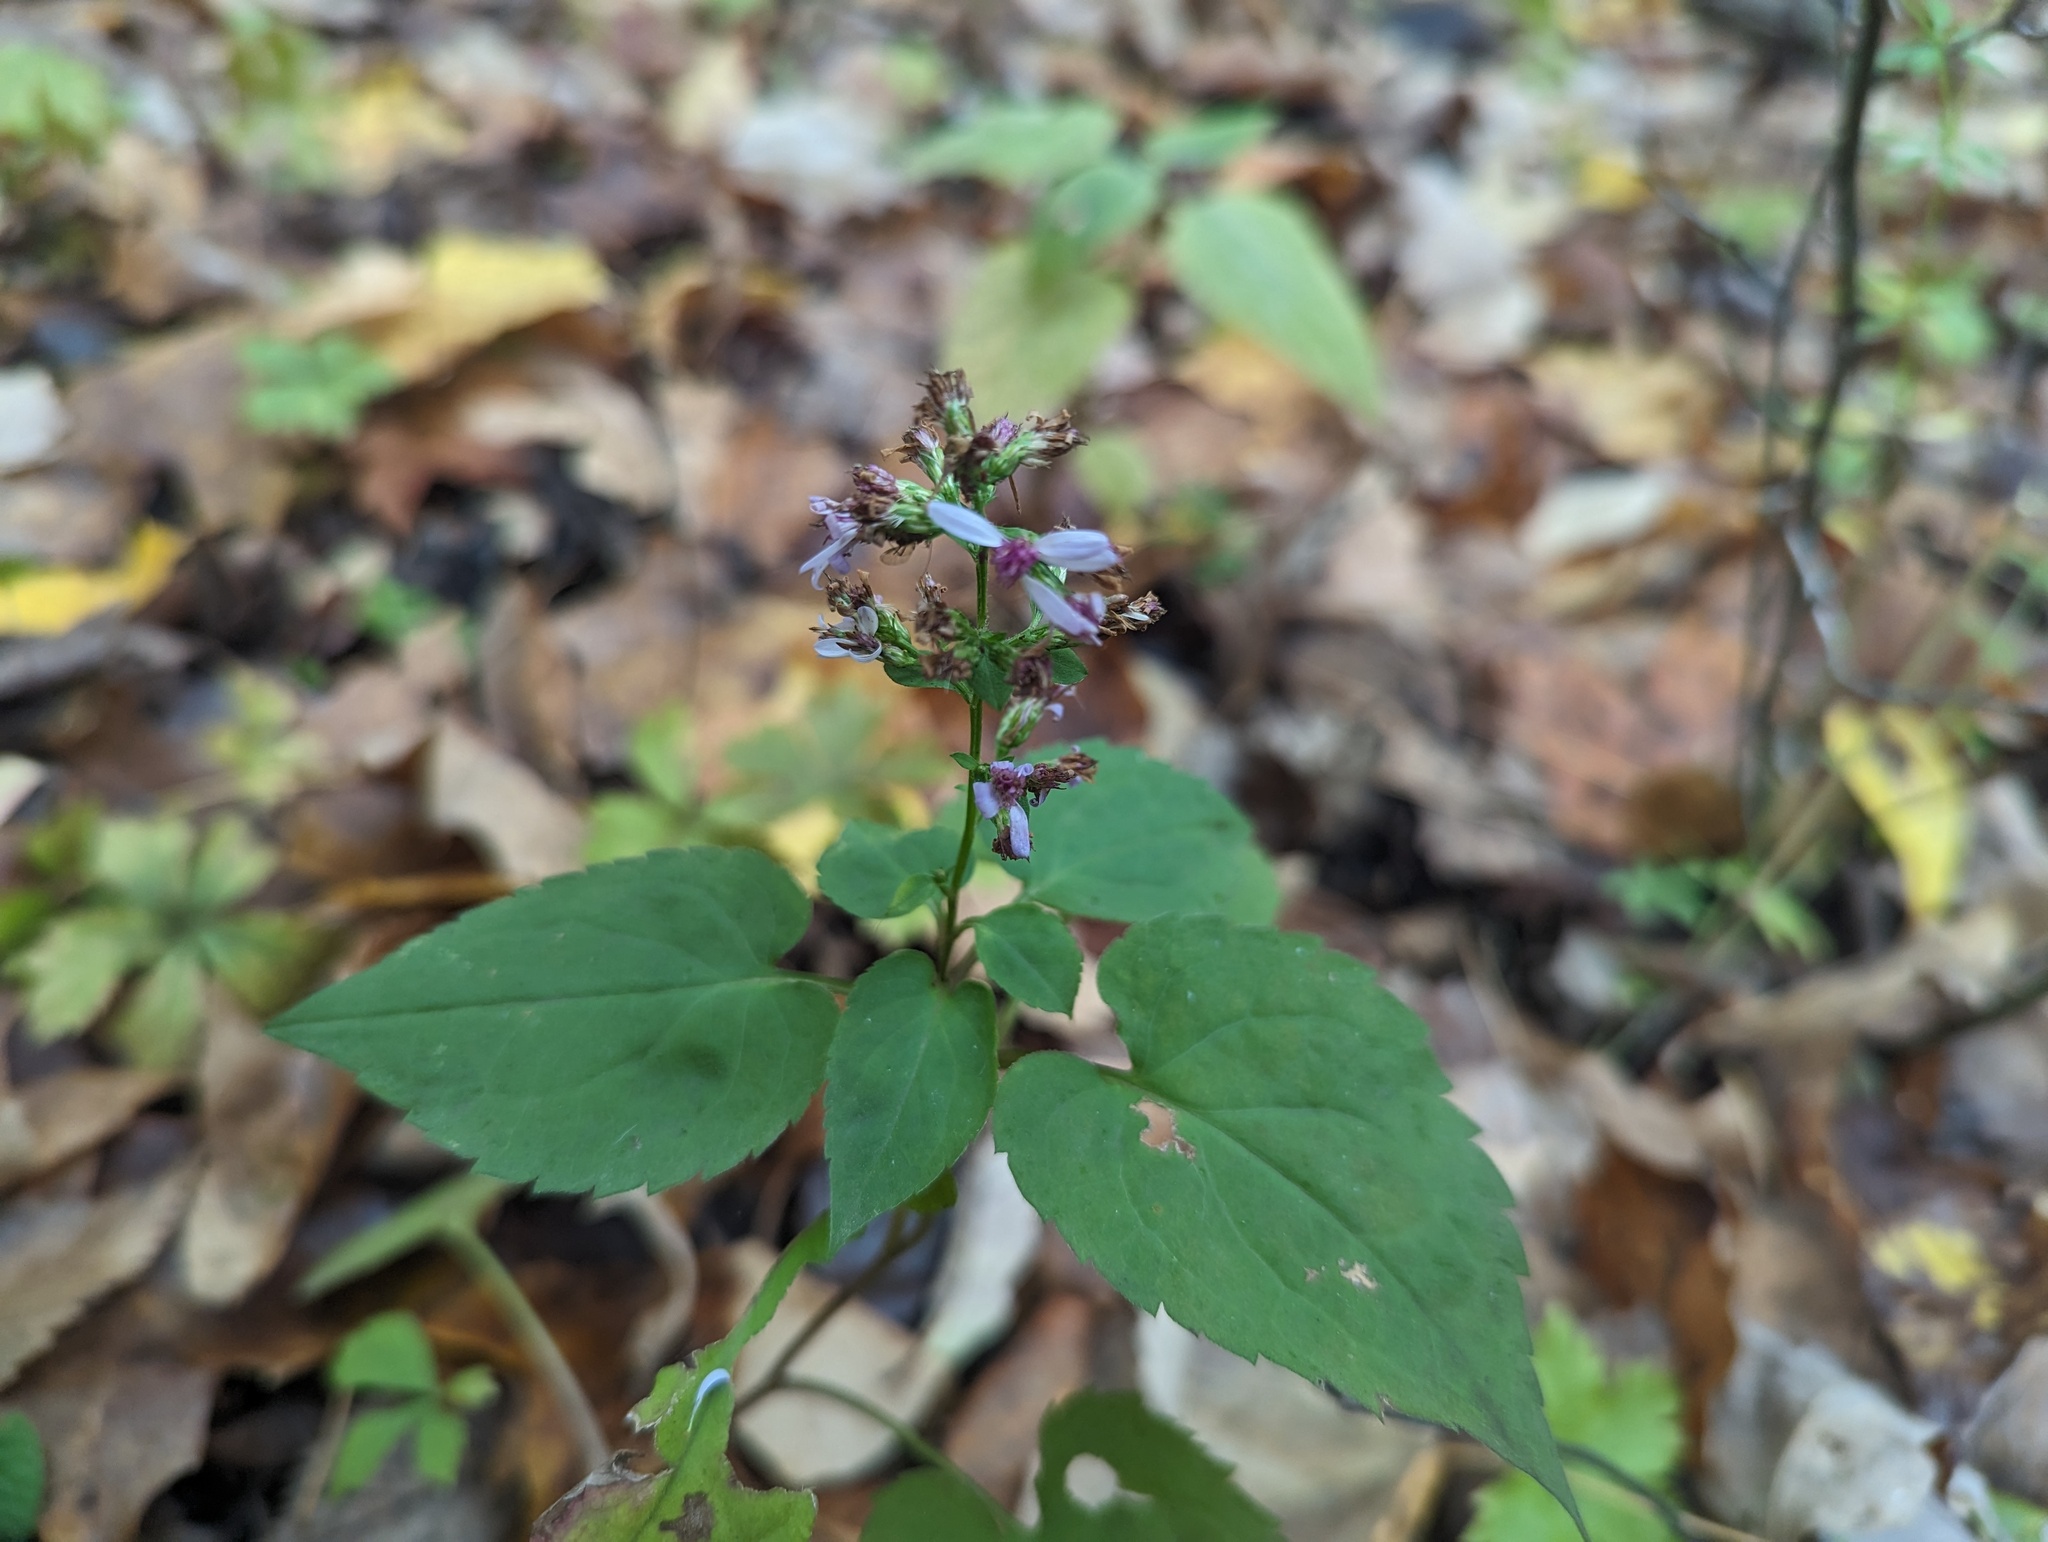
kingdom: Plantae
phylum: Tracheophyta
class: Magnoliopsida
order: Asterales
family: Asteraceae
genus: Symphyotrichum
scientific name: Symphyotrichum cordifolium
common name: Beeweed
